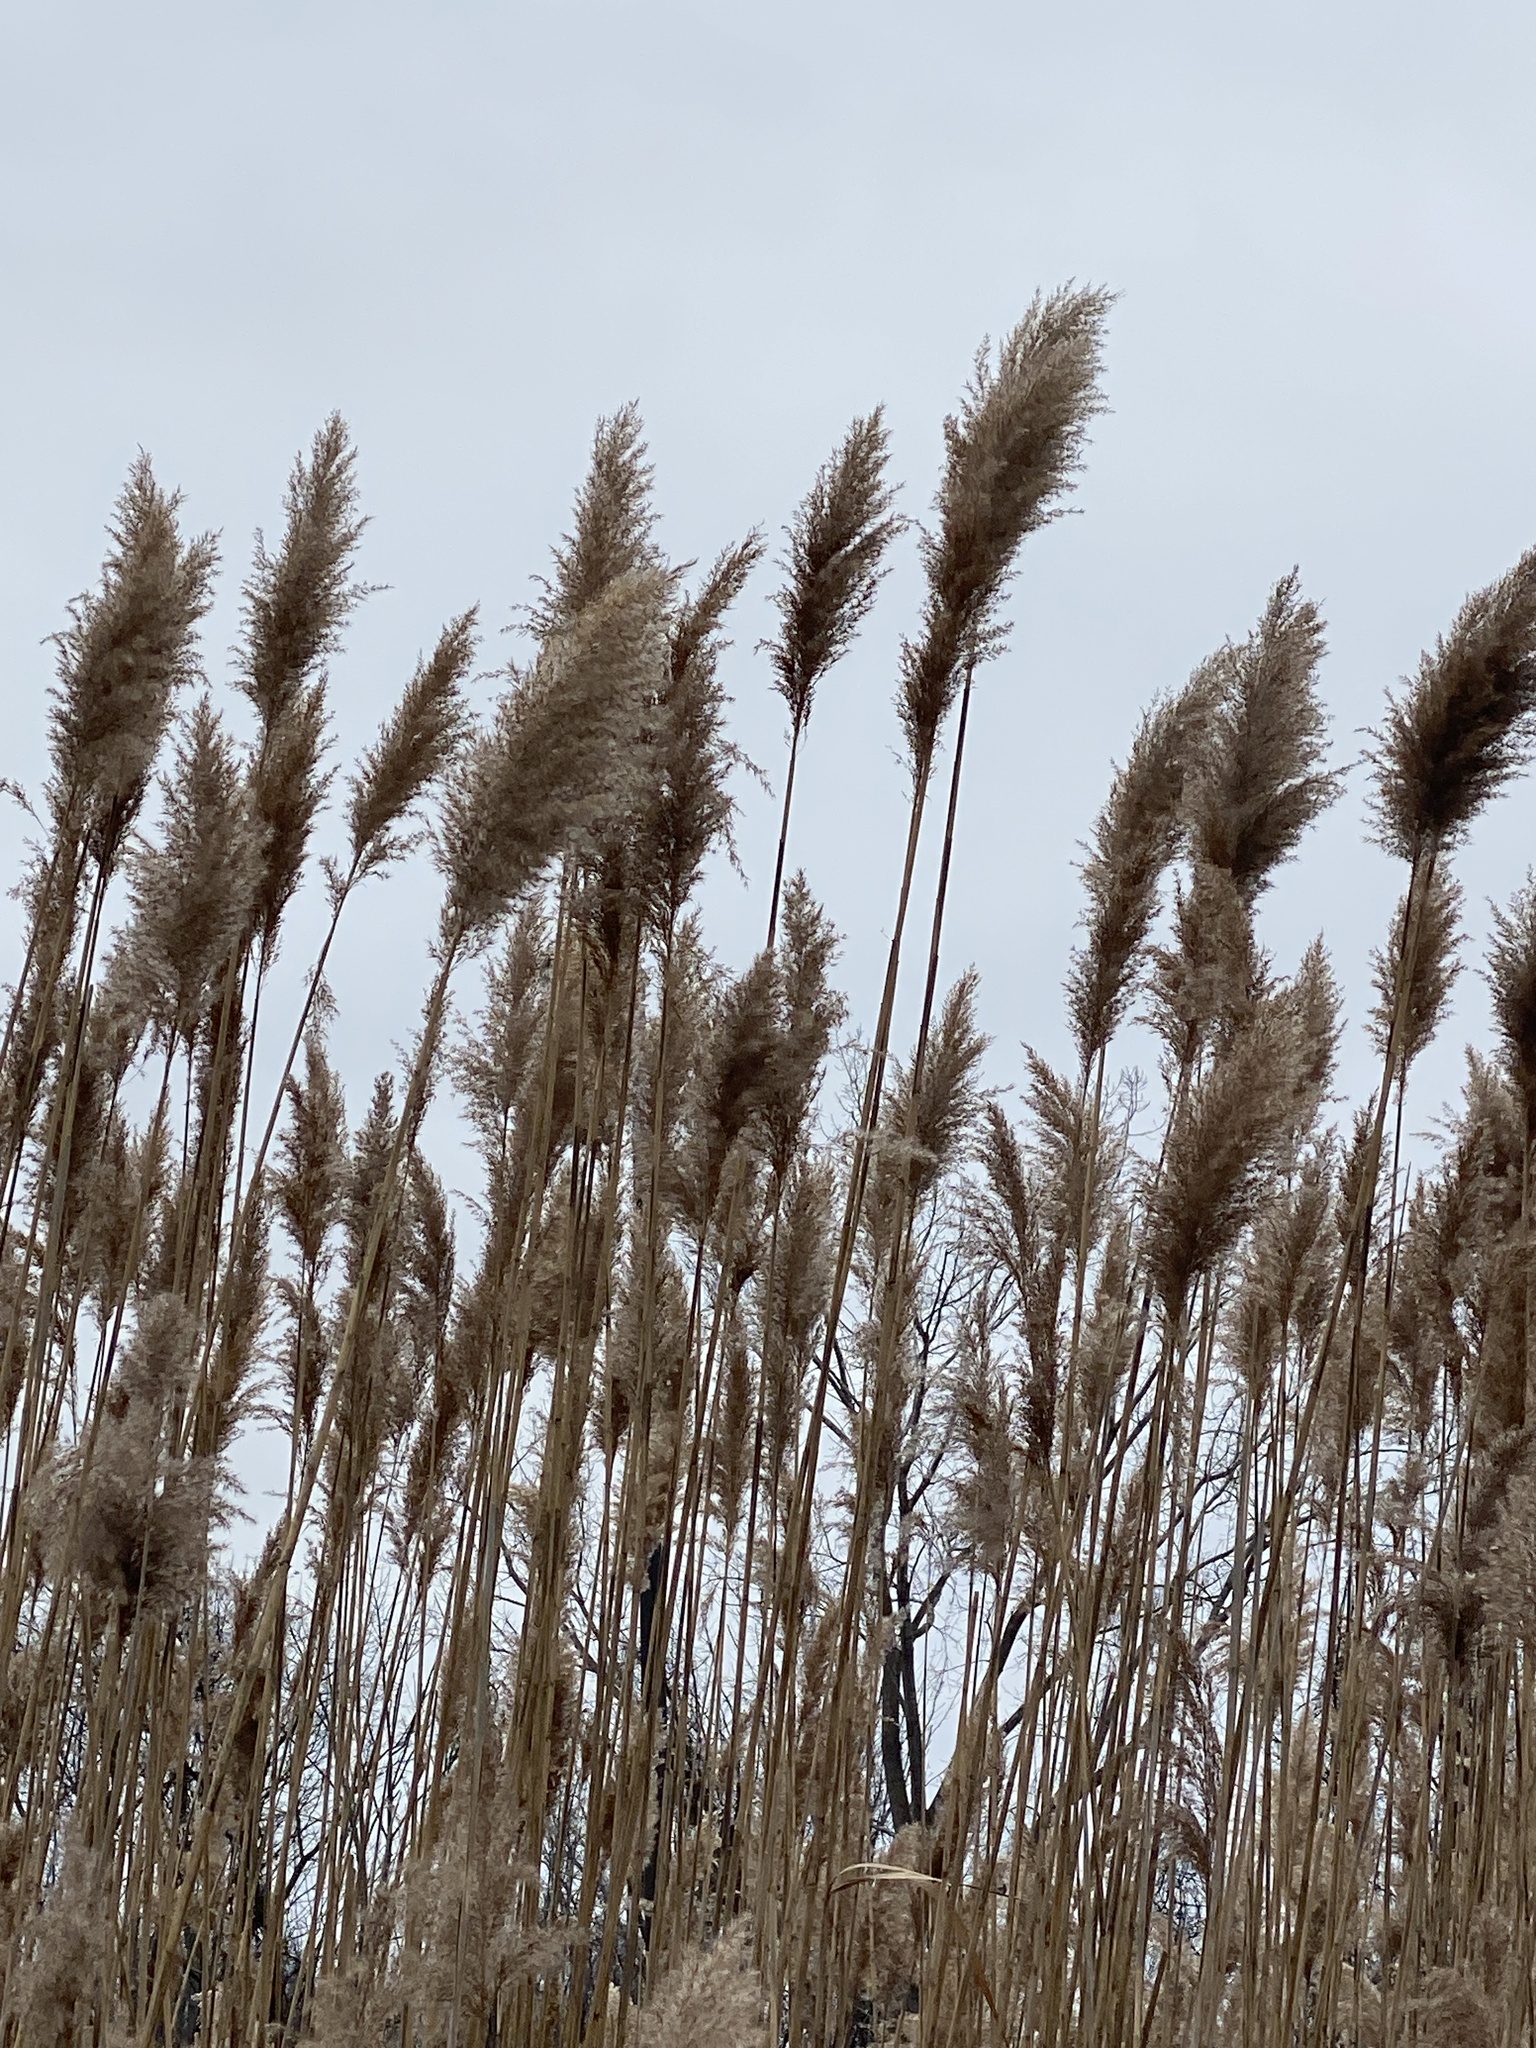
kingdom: Plantae
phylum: Tracheophyta
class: Liliopsida
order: Poales
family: Poaceae
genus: Phragmites
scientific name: Phragmites australis
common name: Common reed
